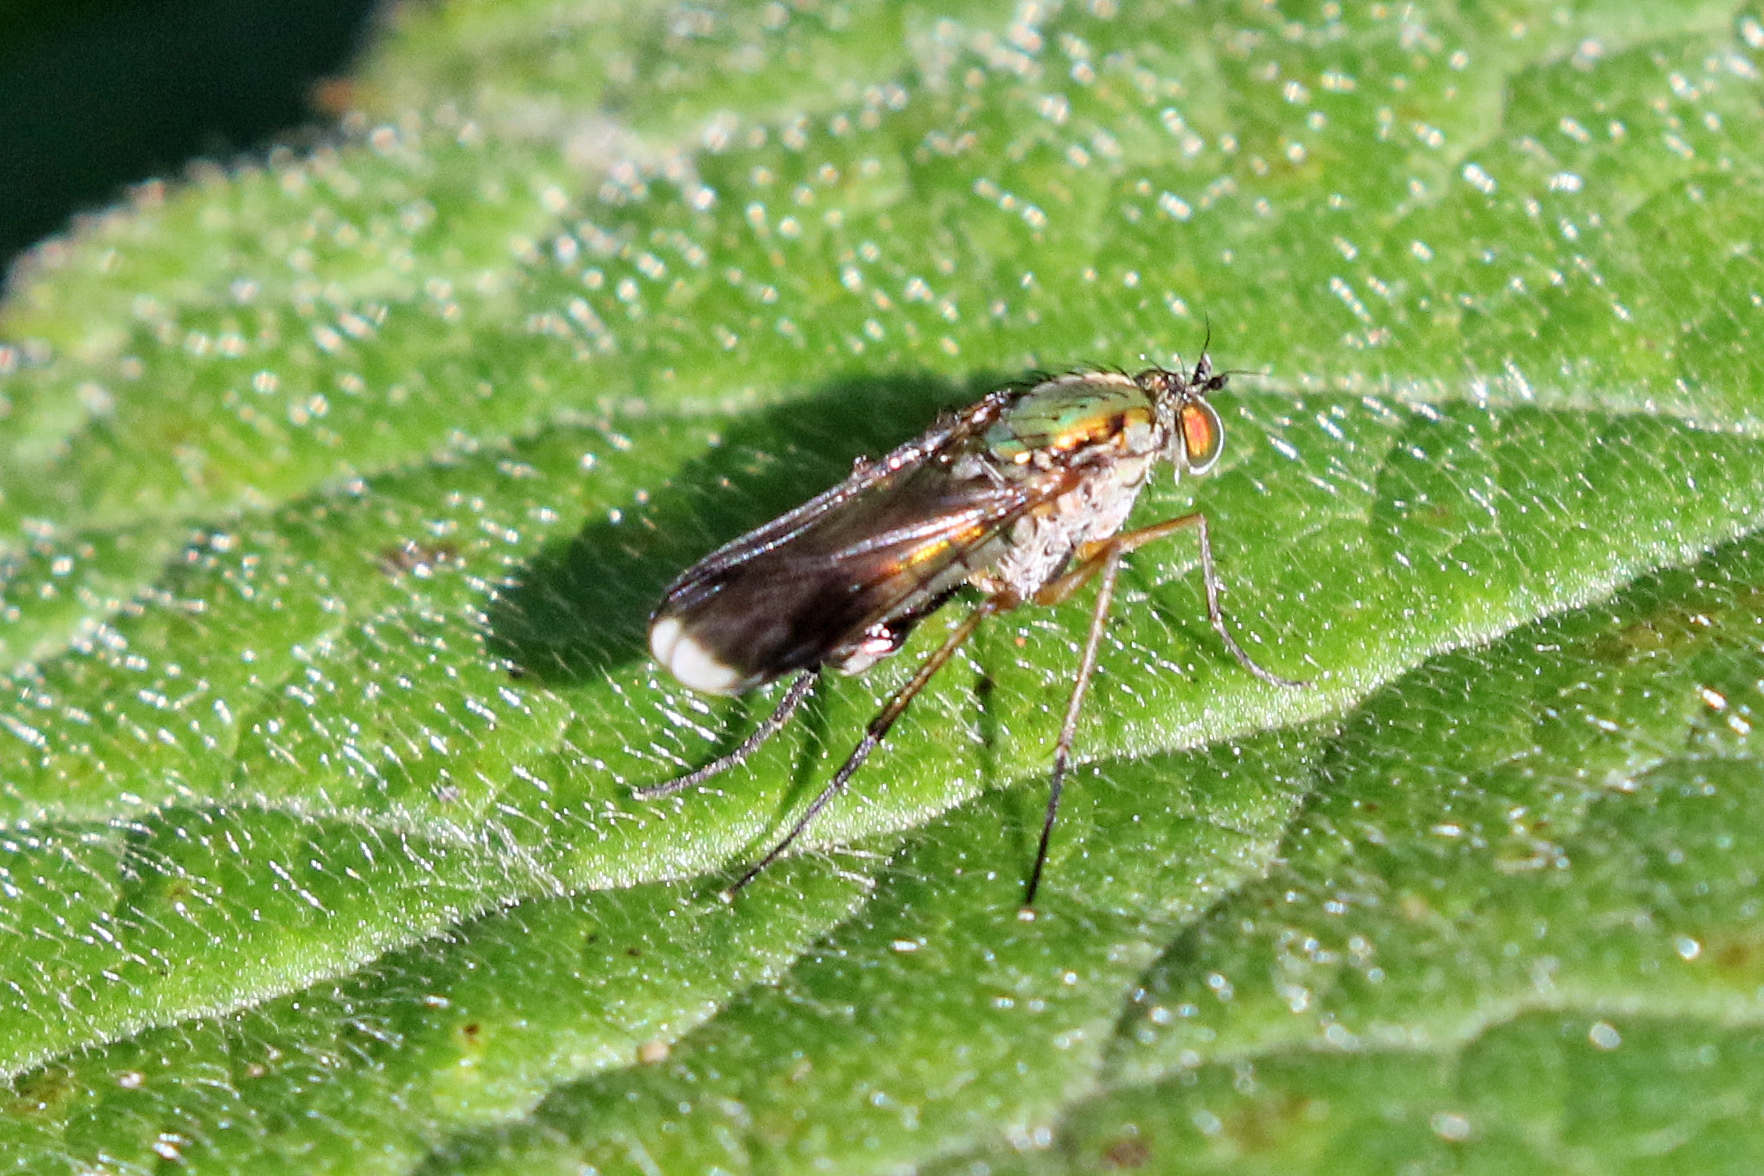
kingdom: Animalia
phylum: Arthropoda
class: Insecta
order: Diptera
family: Dolichopodidae
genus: Poecilobothrus
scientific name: Poecilobothrus nobilitatus
